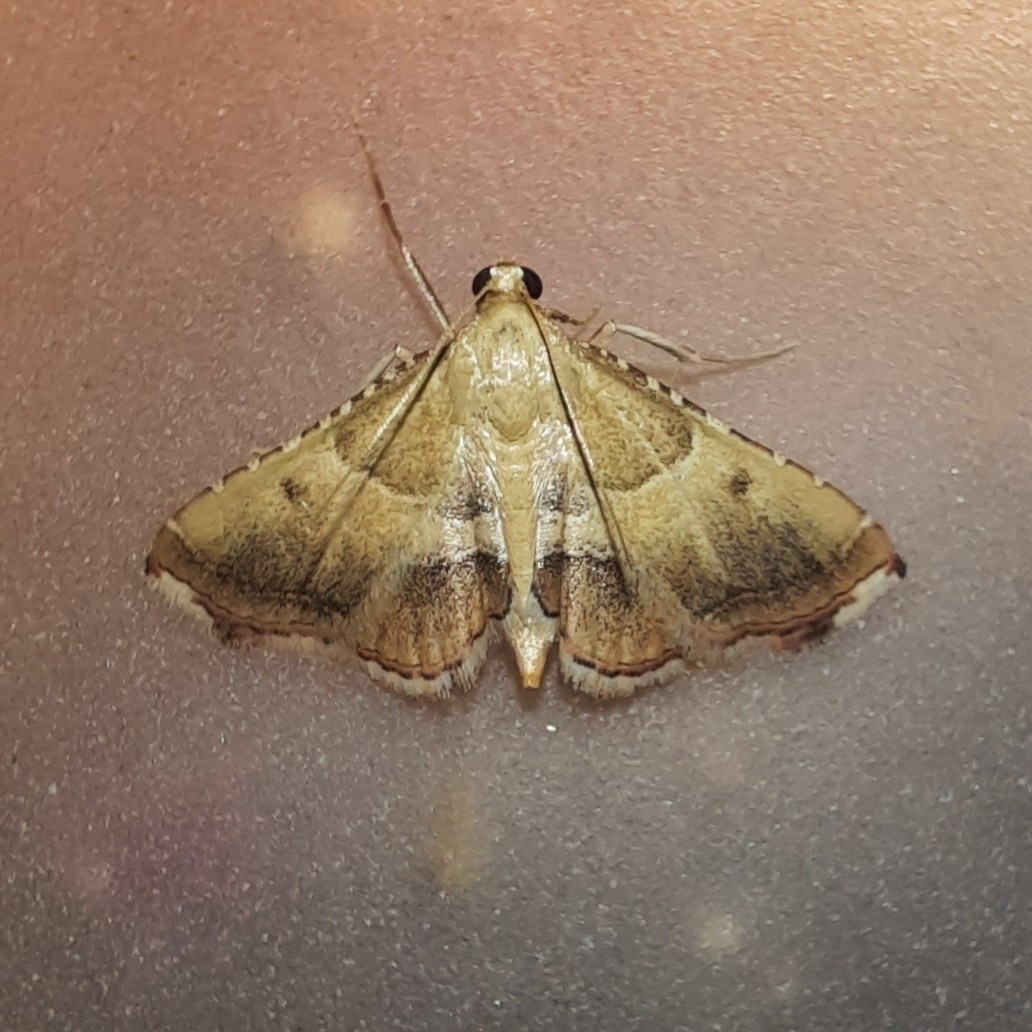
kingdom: Animalia
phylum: Arthropoda
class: Insecta
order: Lepidoptera
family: Pyralidae
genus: Endotricha
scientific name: Endotricha flammealis
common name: Rosy tabby
